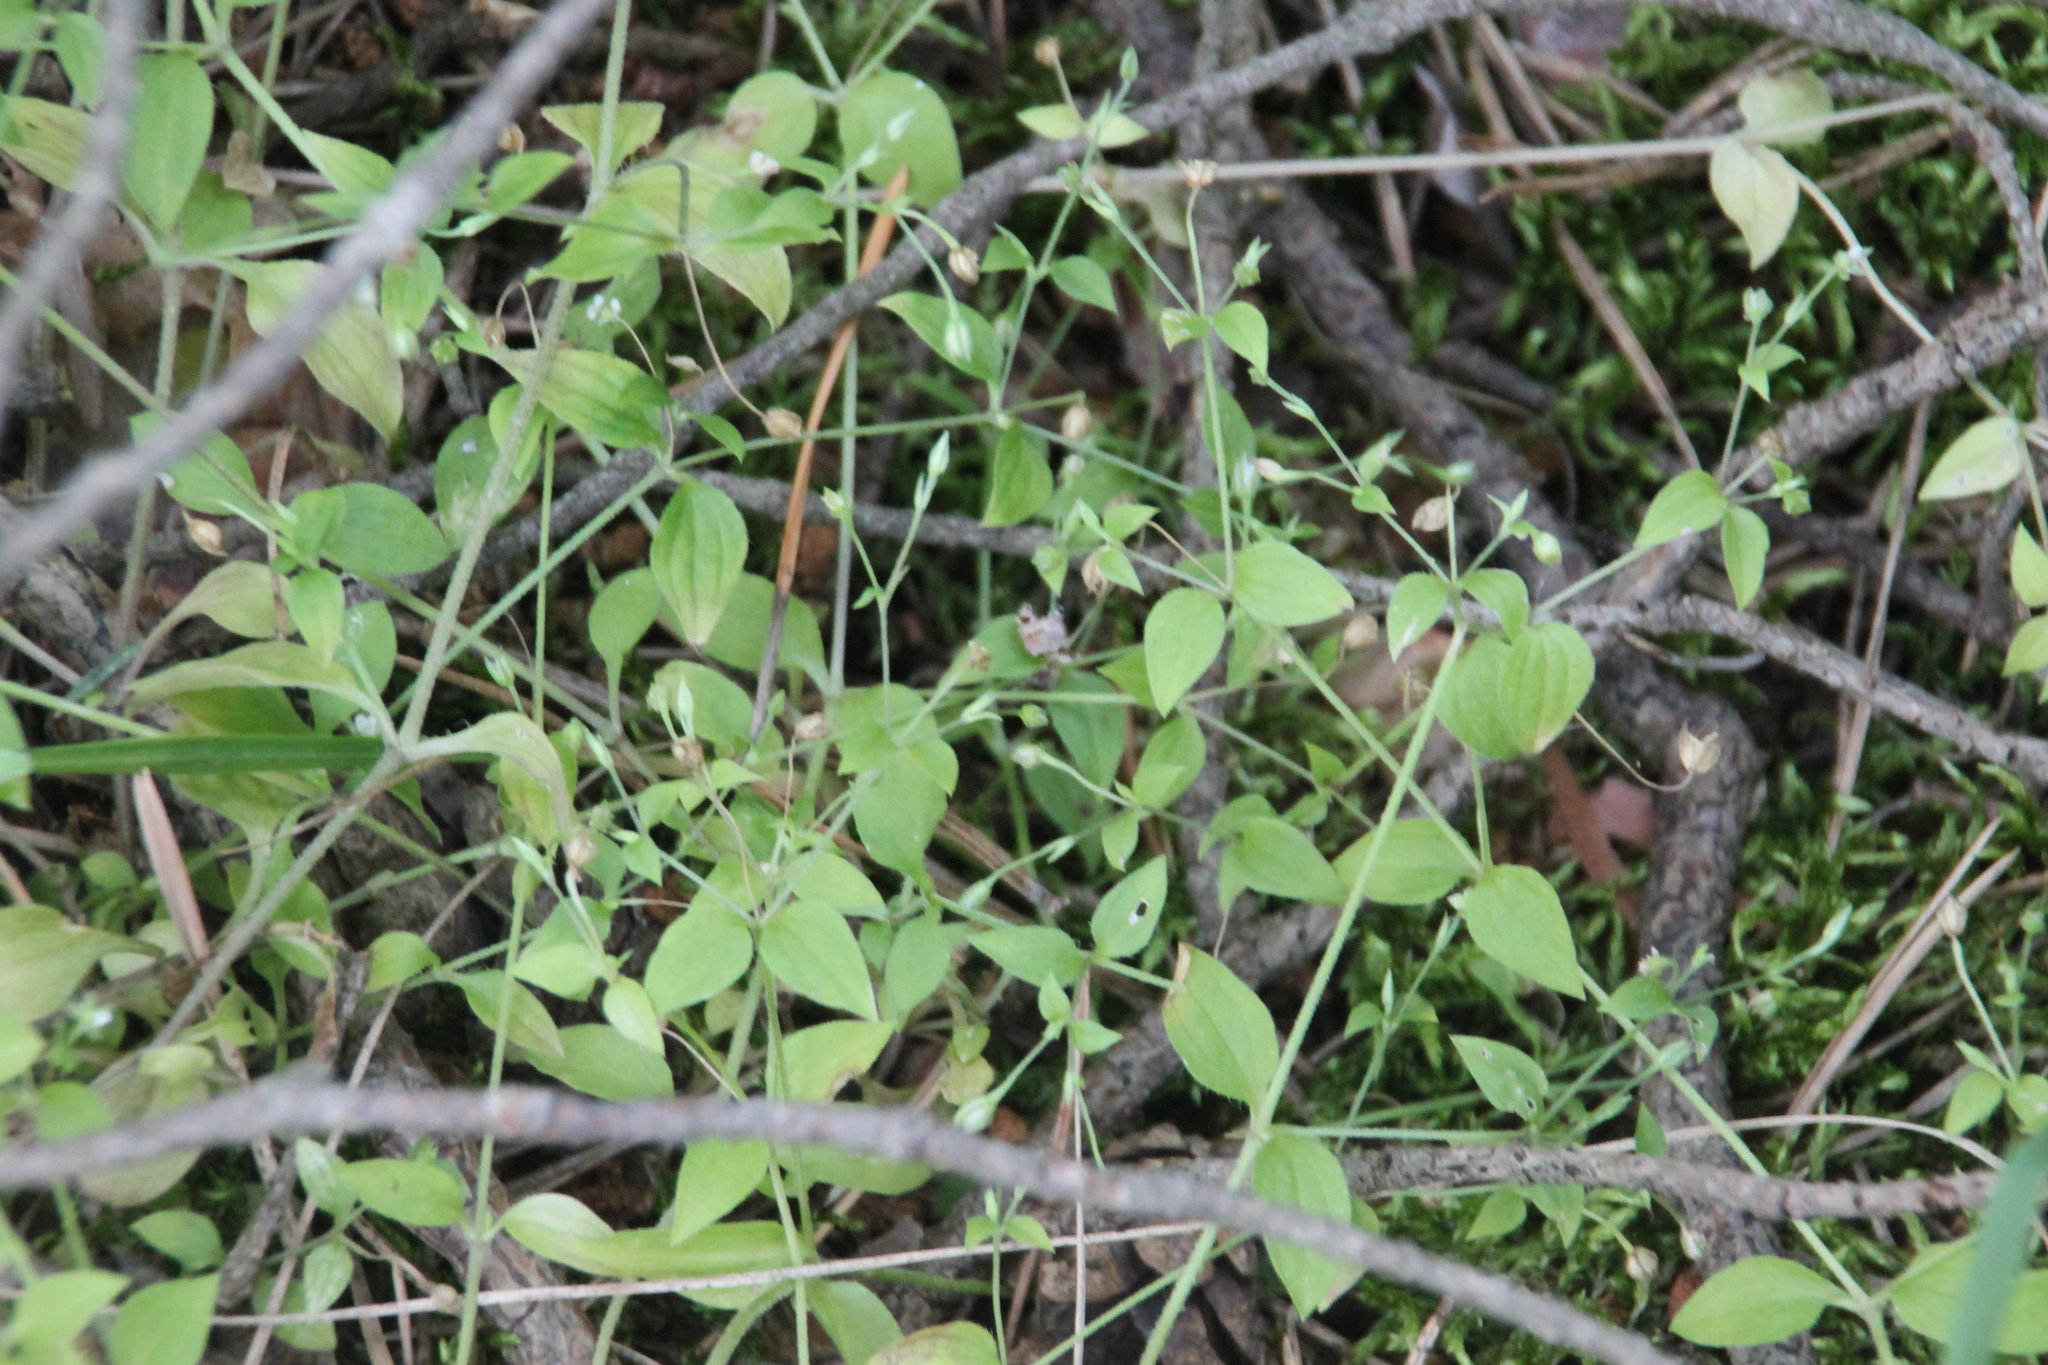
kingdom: Plantae
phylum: Tracheophyta
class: Magnoliopsida
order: Caryophyllales
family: Caryophyllaceae
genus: Moehringia
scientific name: Moehringia trinervia
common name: Three-nerved sandwort
